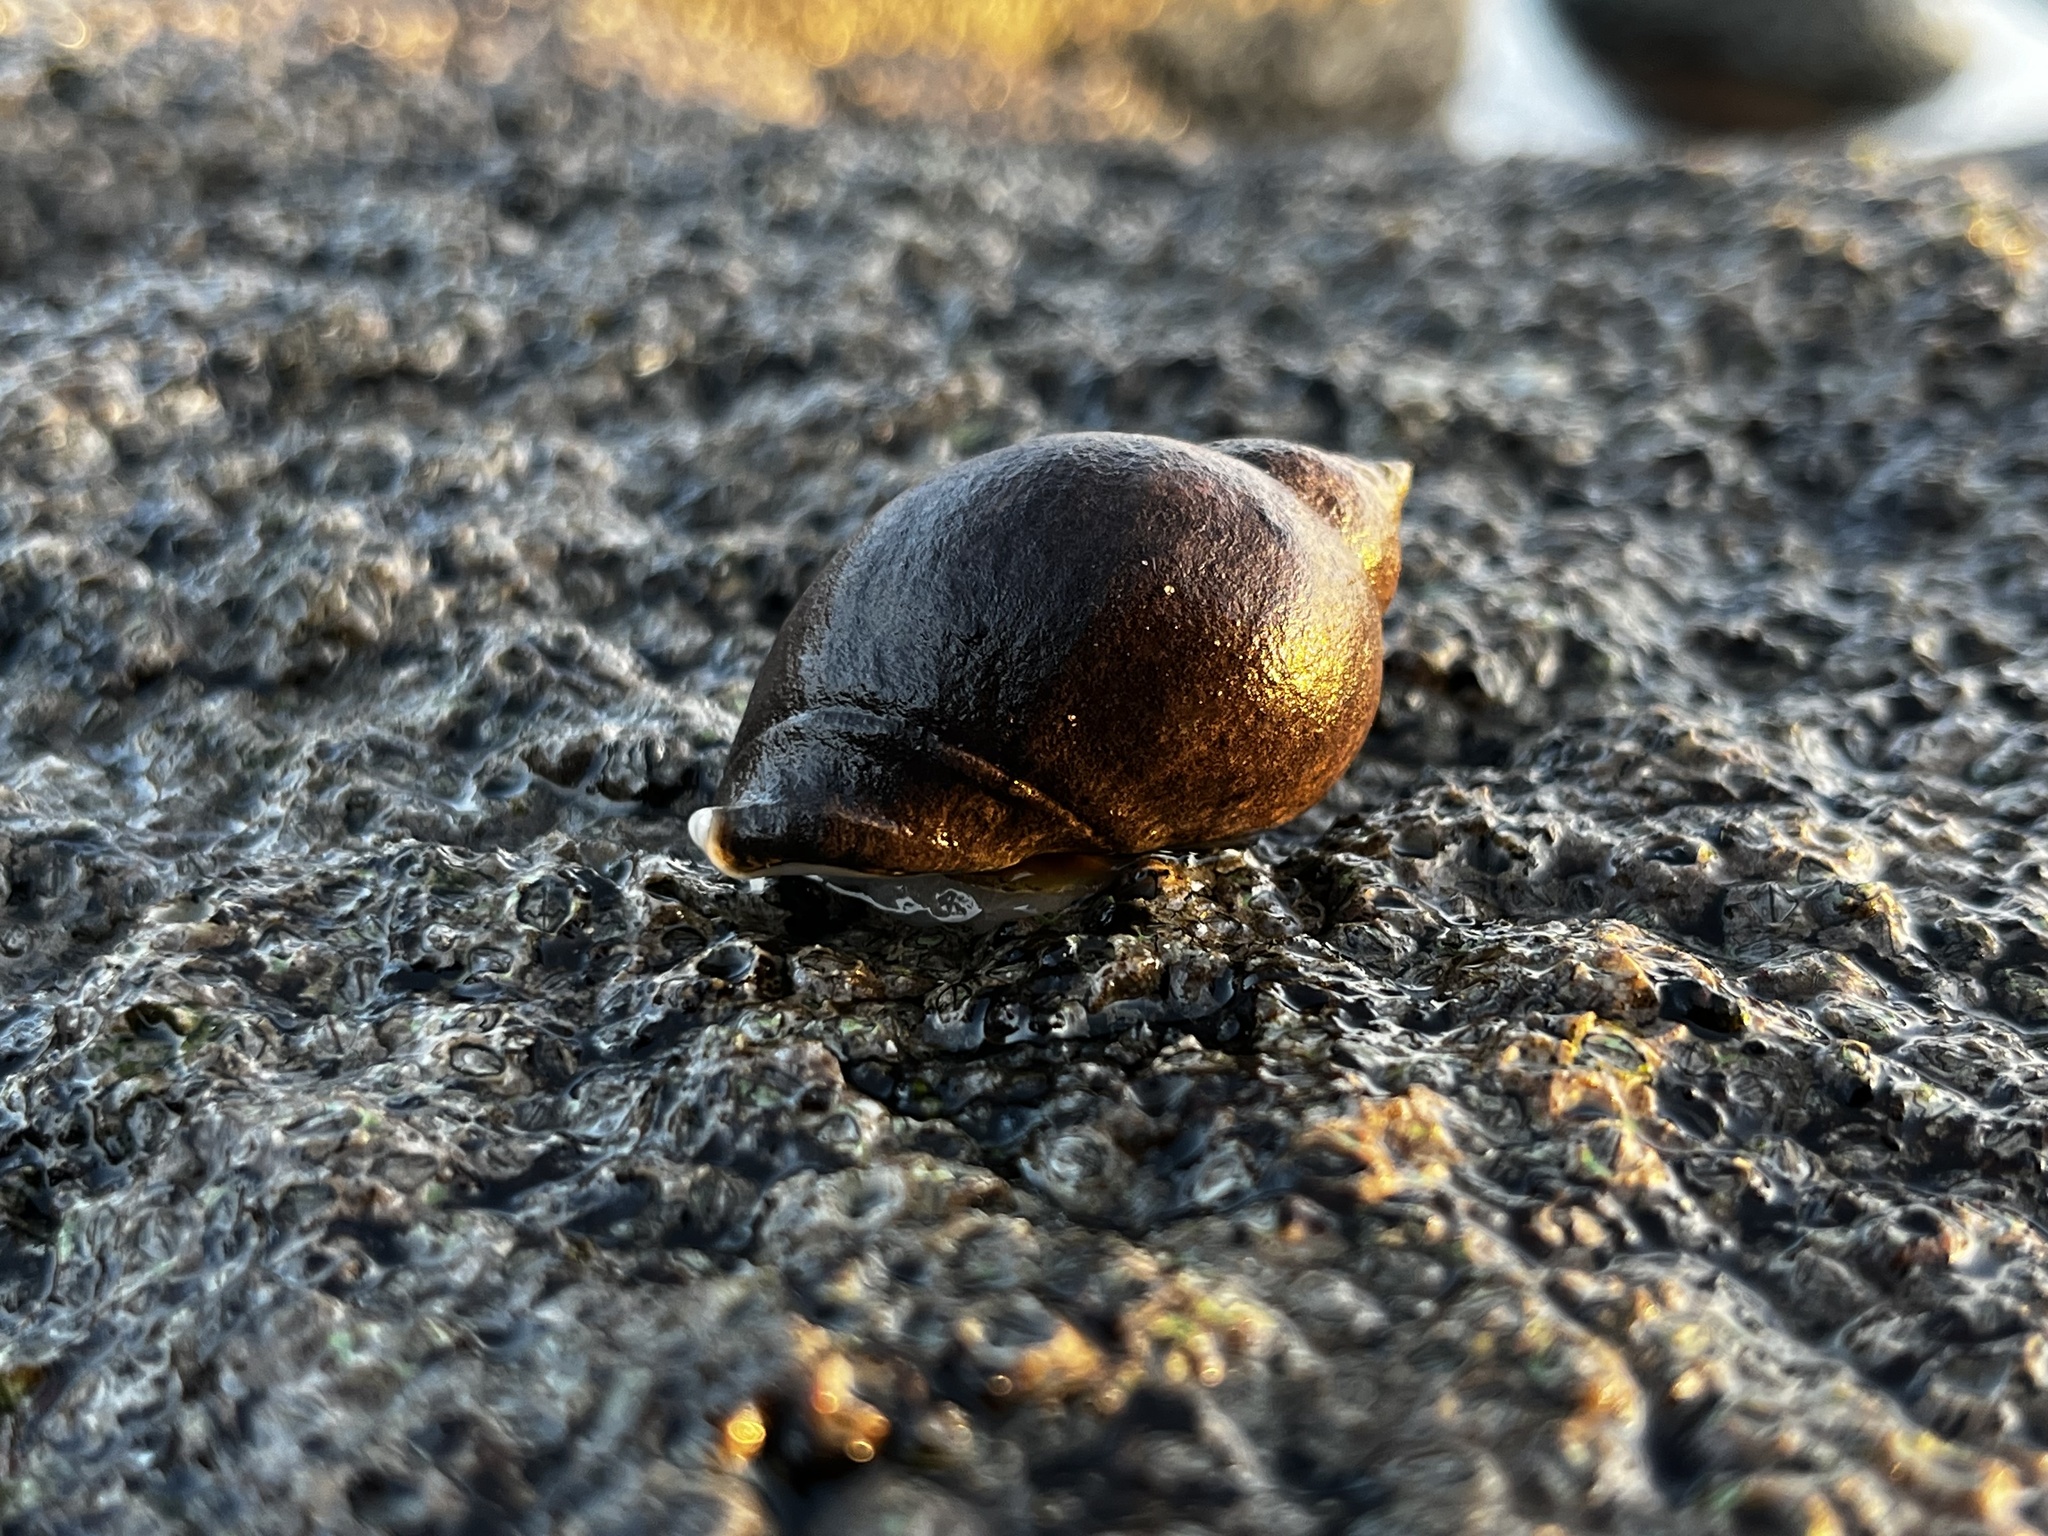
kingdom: Animalia
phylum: Mollusca
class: Gastropoda
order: Neogastropoda
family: Muricidae
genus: Acanthina
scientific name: Acanthina monodon
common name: One-toothed thais
